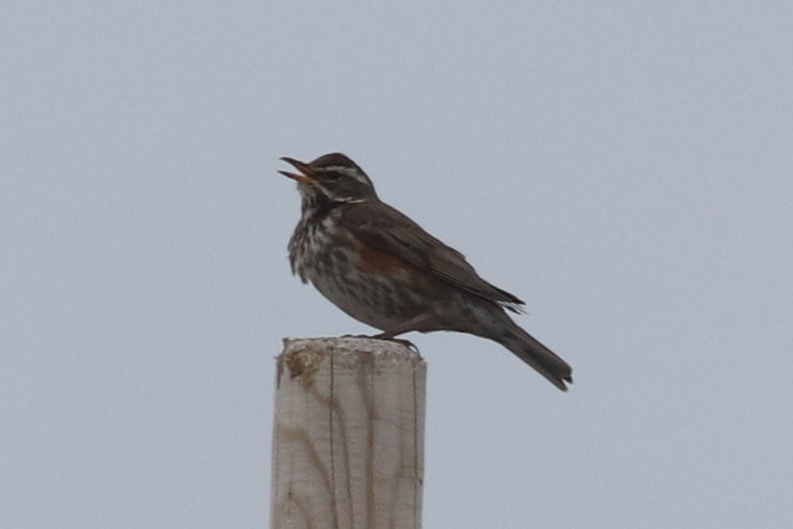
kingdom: Animalia
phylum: Chordata
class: Aves
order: Passeriformes
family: Turdidae
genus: Turdus
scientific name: Turdus iliacus
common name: Redwing
